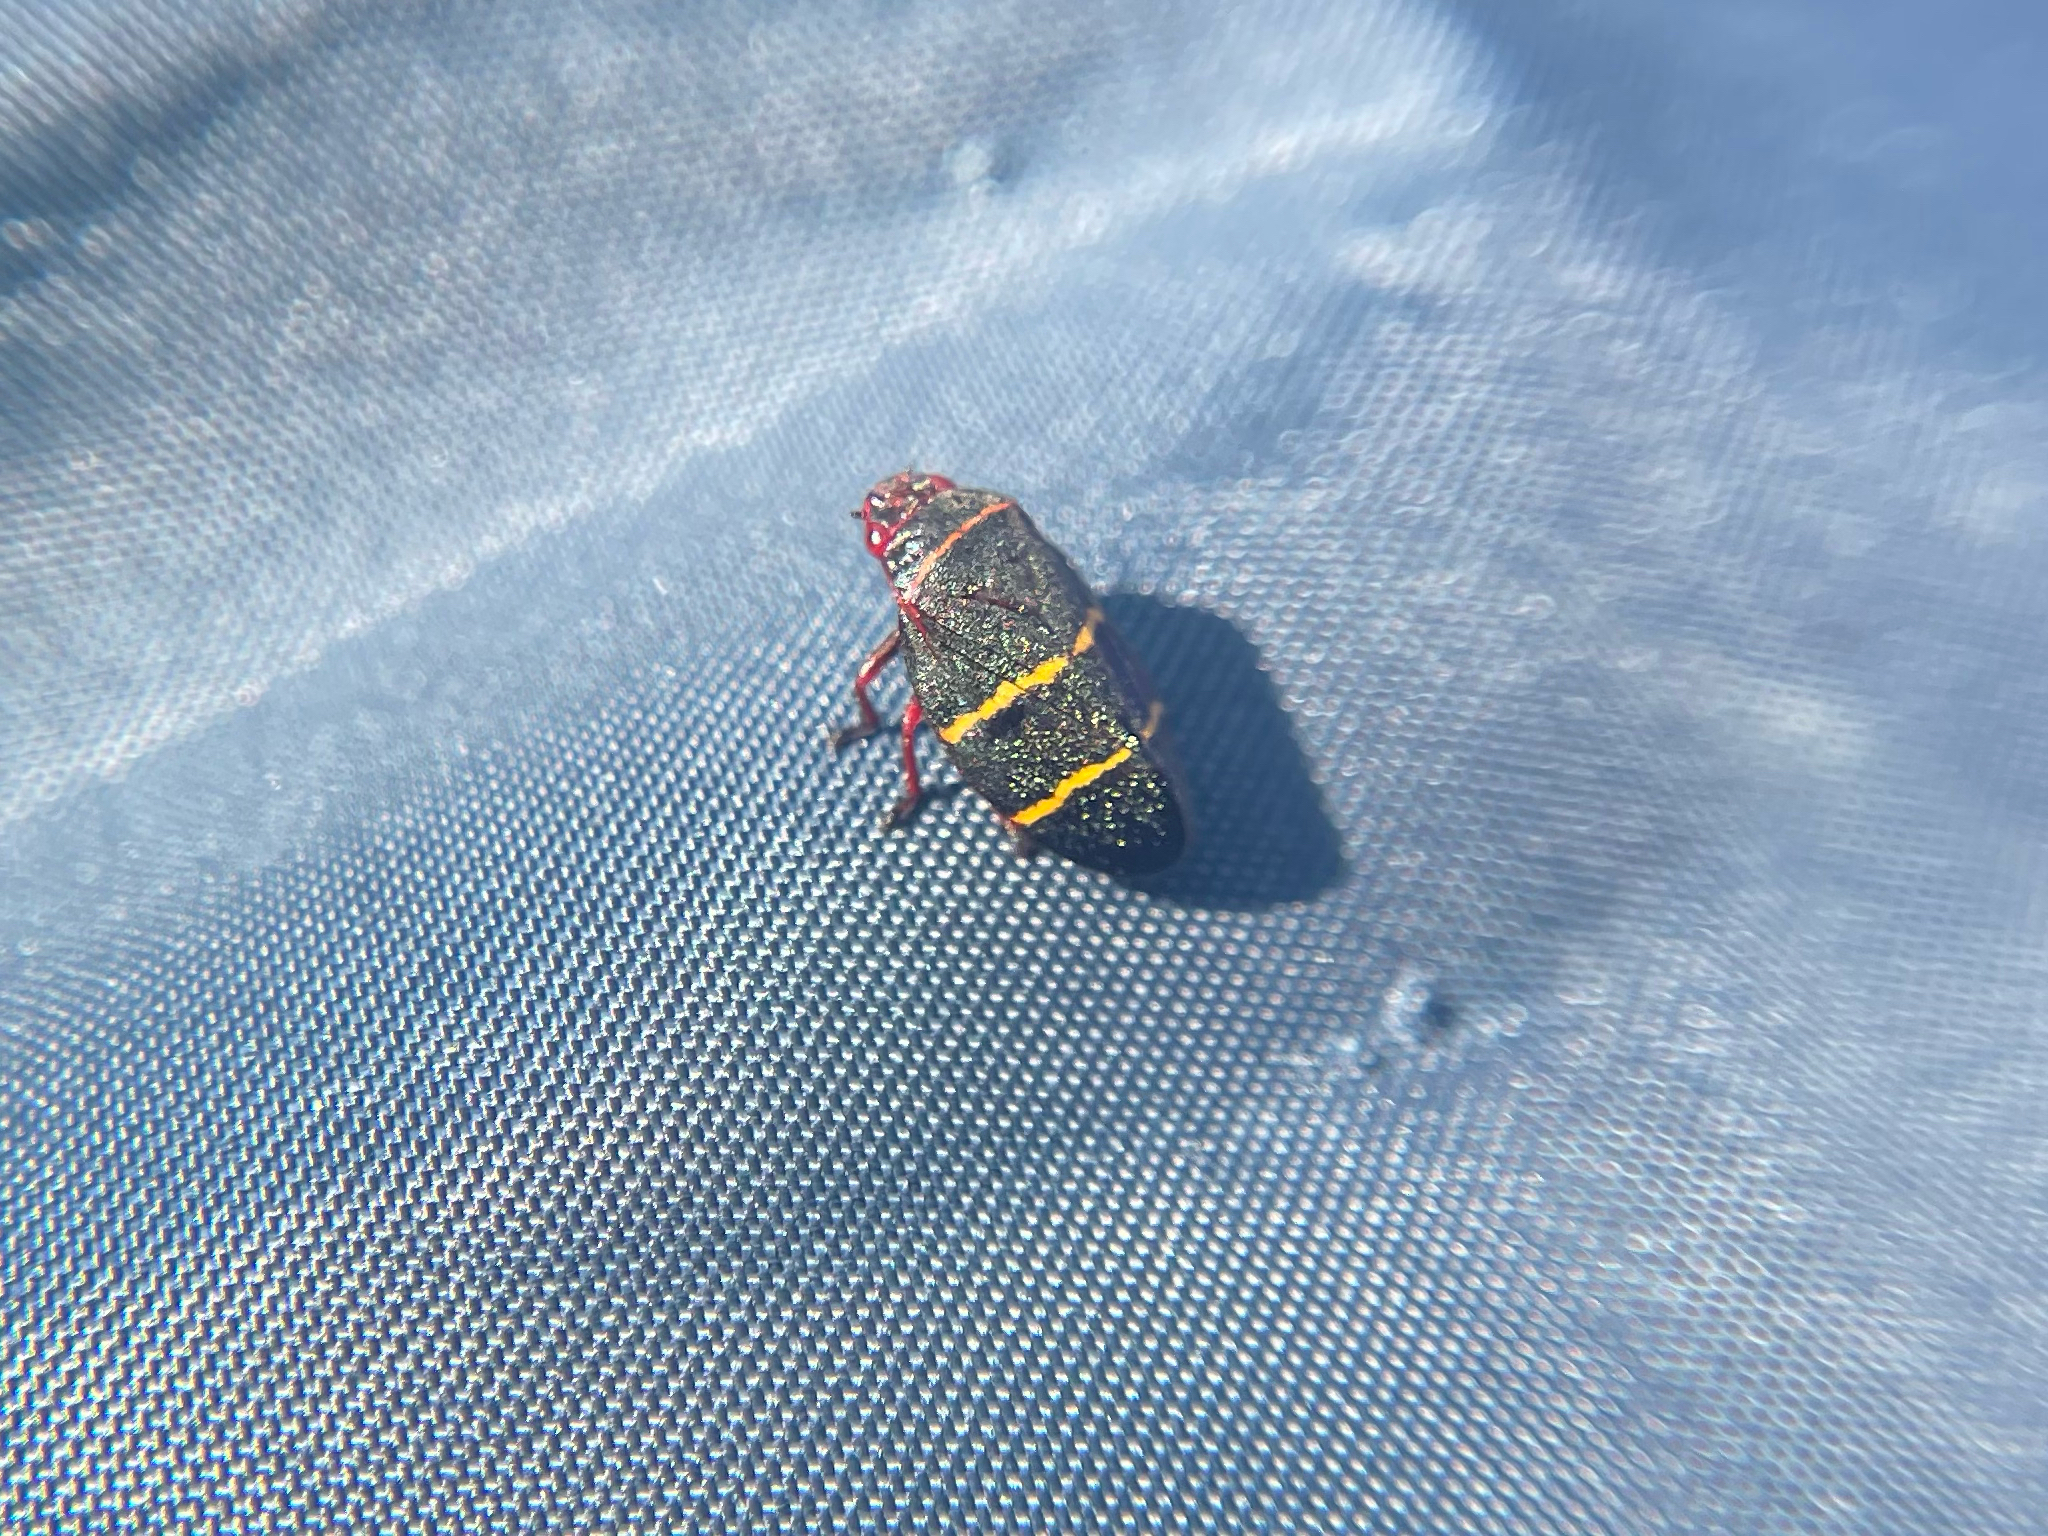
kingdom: Animalia
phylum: Arthropoda
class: Insecta
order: Hemiptera
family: Cercopidae
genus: Prosapia
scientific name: Prosapia bicincta
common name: Twolined spittlebug
